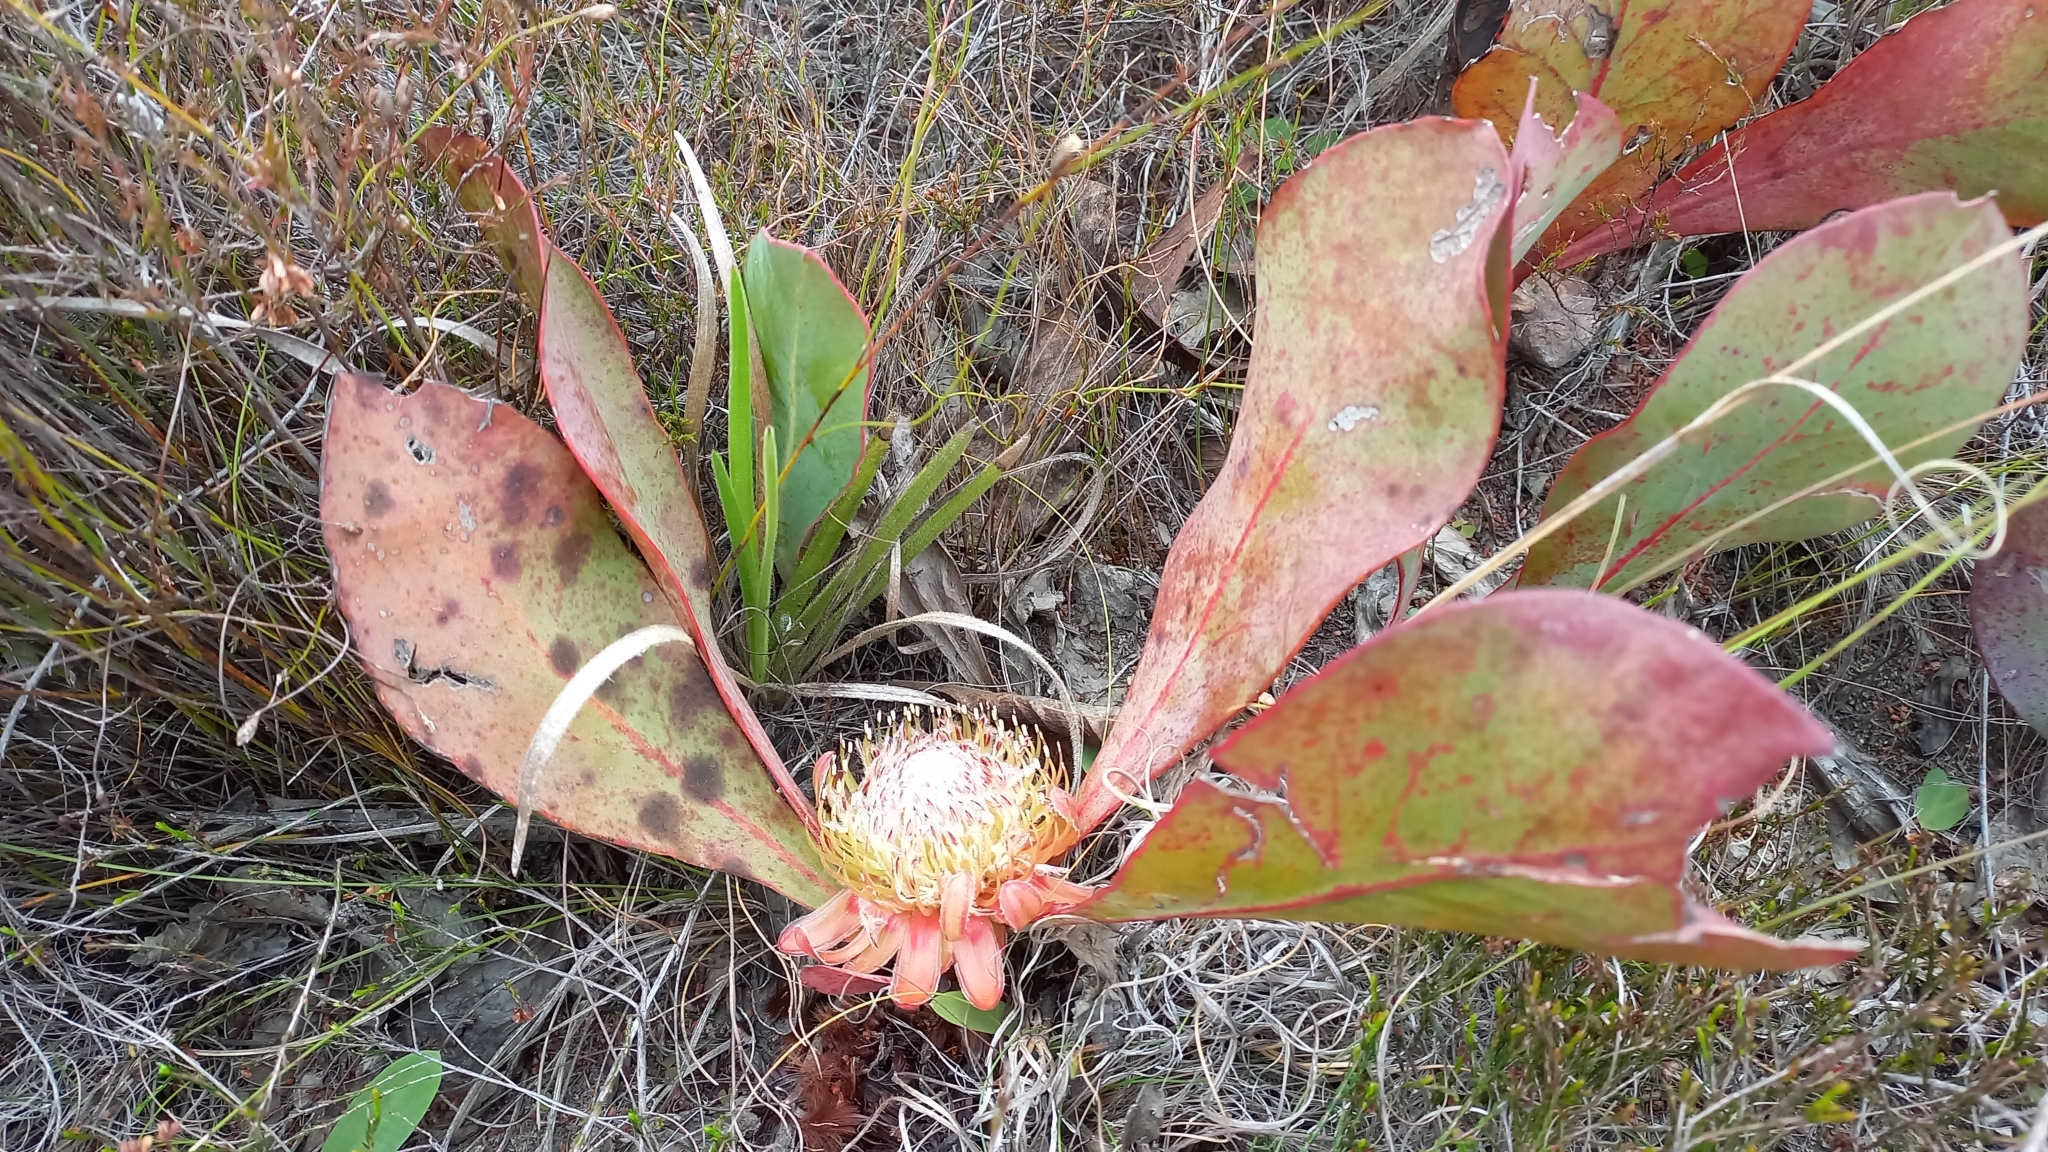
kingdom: Plantae
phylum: Tracheophyta
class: Magnoliopsida
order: Proteales
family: Proteaceae
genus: Protea
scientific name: Protea acaulos
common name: Common ground sugarbush
